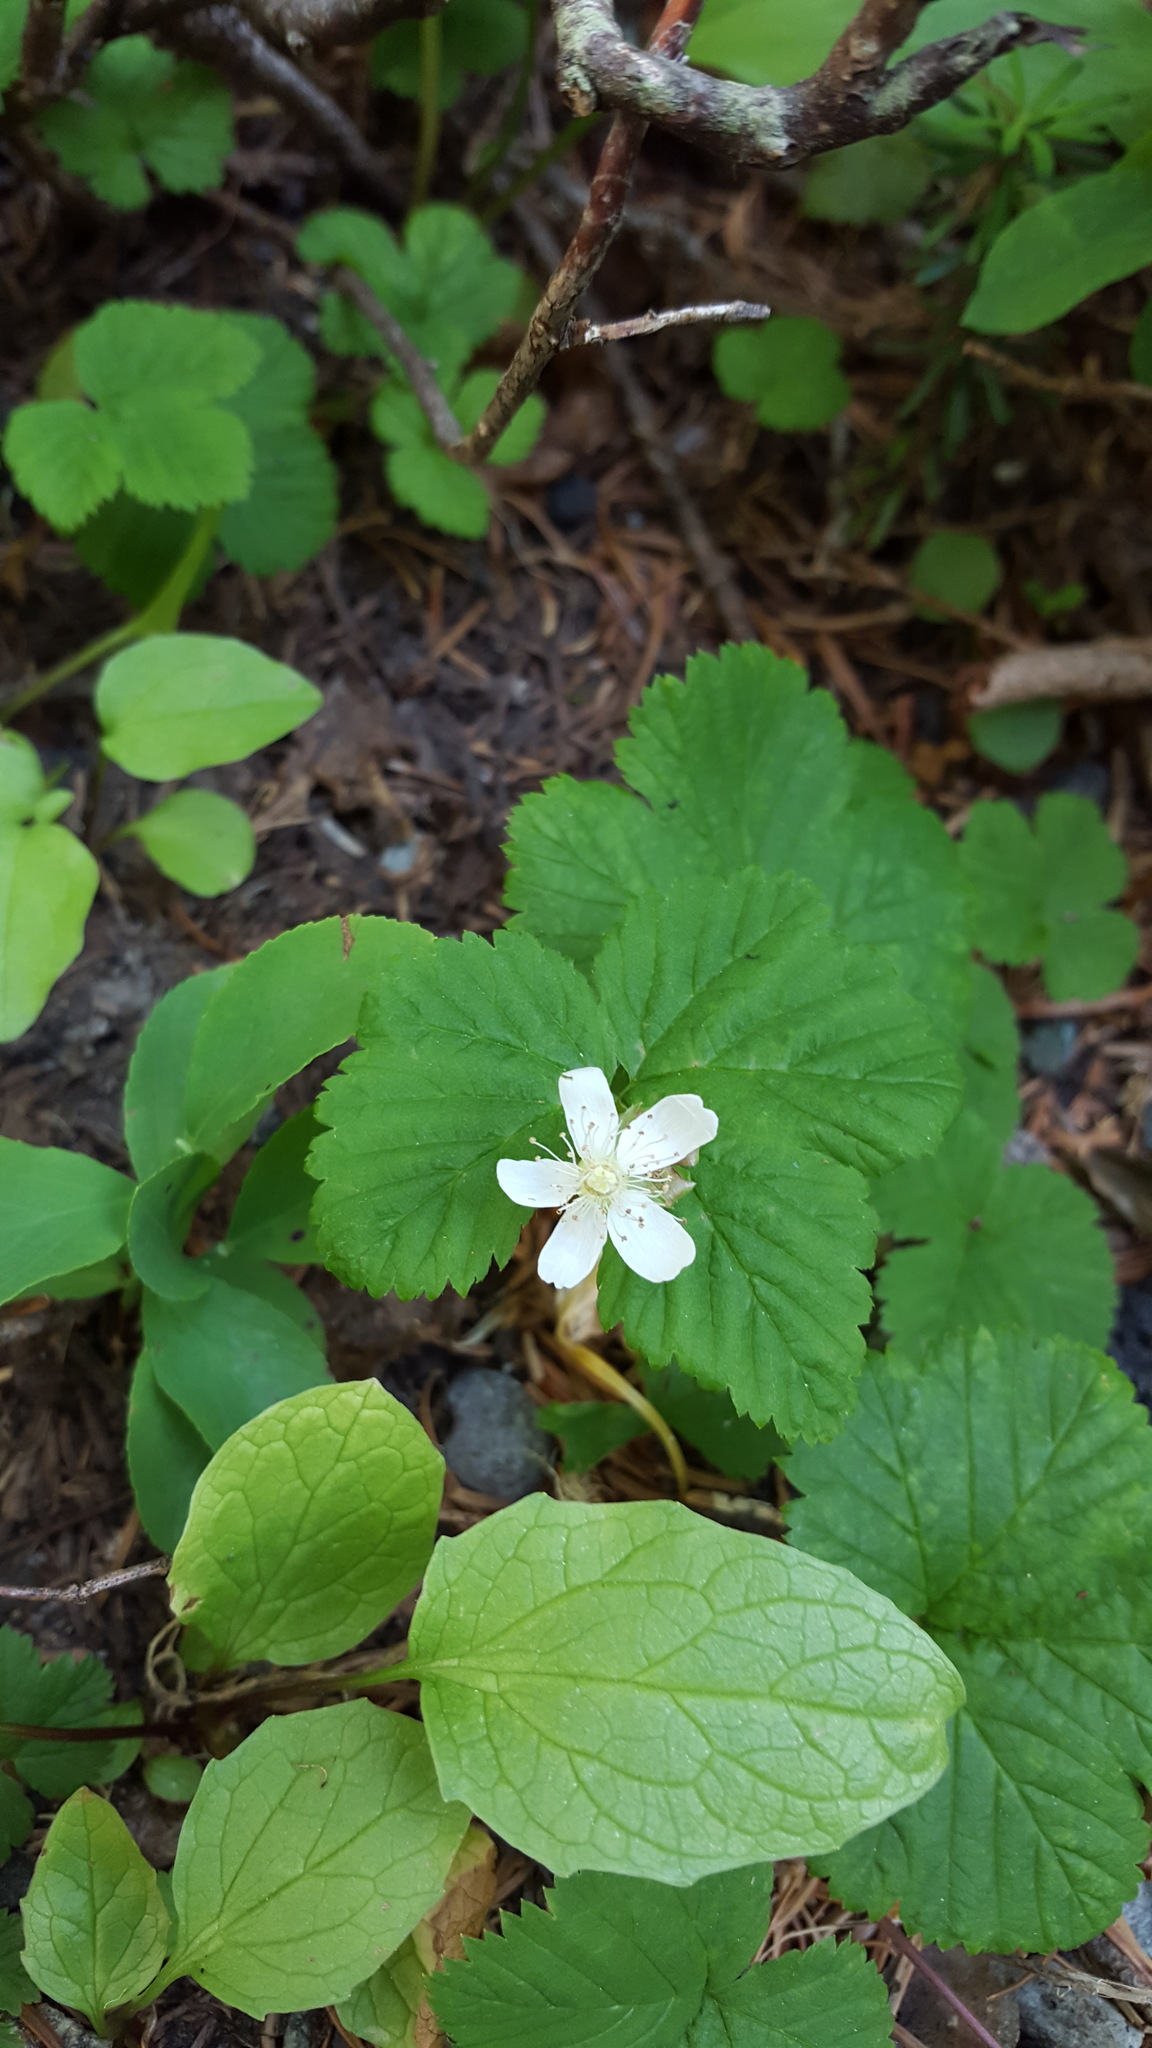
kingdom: Plantae
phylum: Tracheophyta
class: Magnoliopsida
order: Rosales
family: Rosaceae
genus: Rubus
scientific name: Rubus lasiococcus
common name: Dwarf bramble
